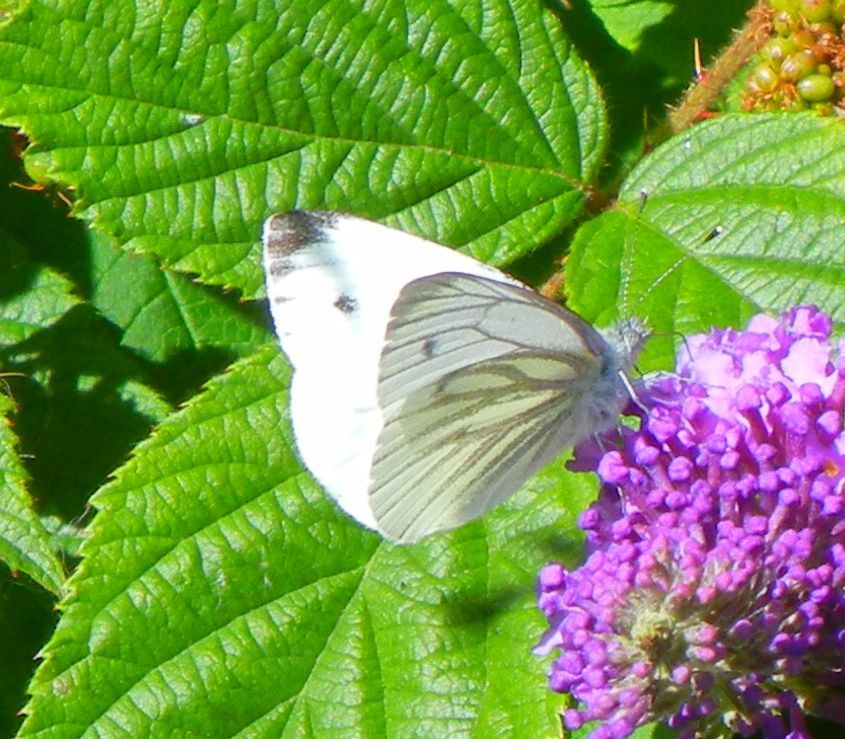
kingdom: Animalia
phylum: Arthropoda
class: Insecta
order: Lepidoptera
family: Pieridae
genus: Pieris
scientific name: Pieris napi
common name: Green-veined white
